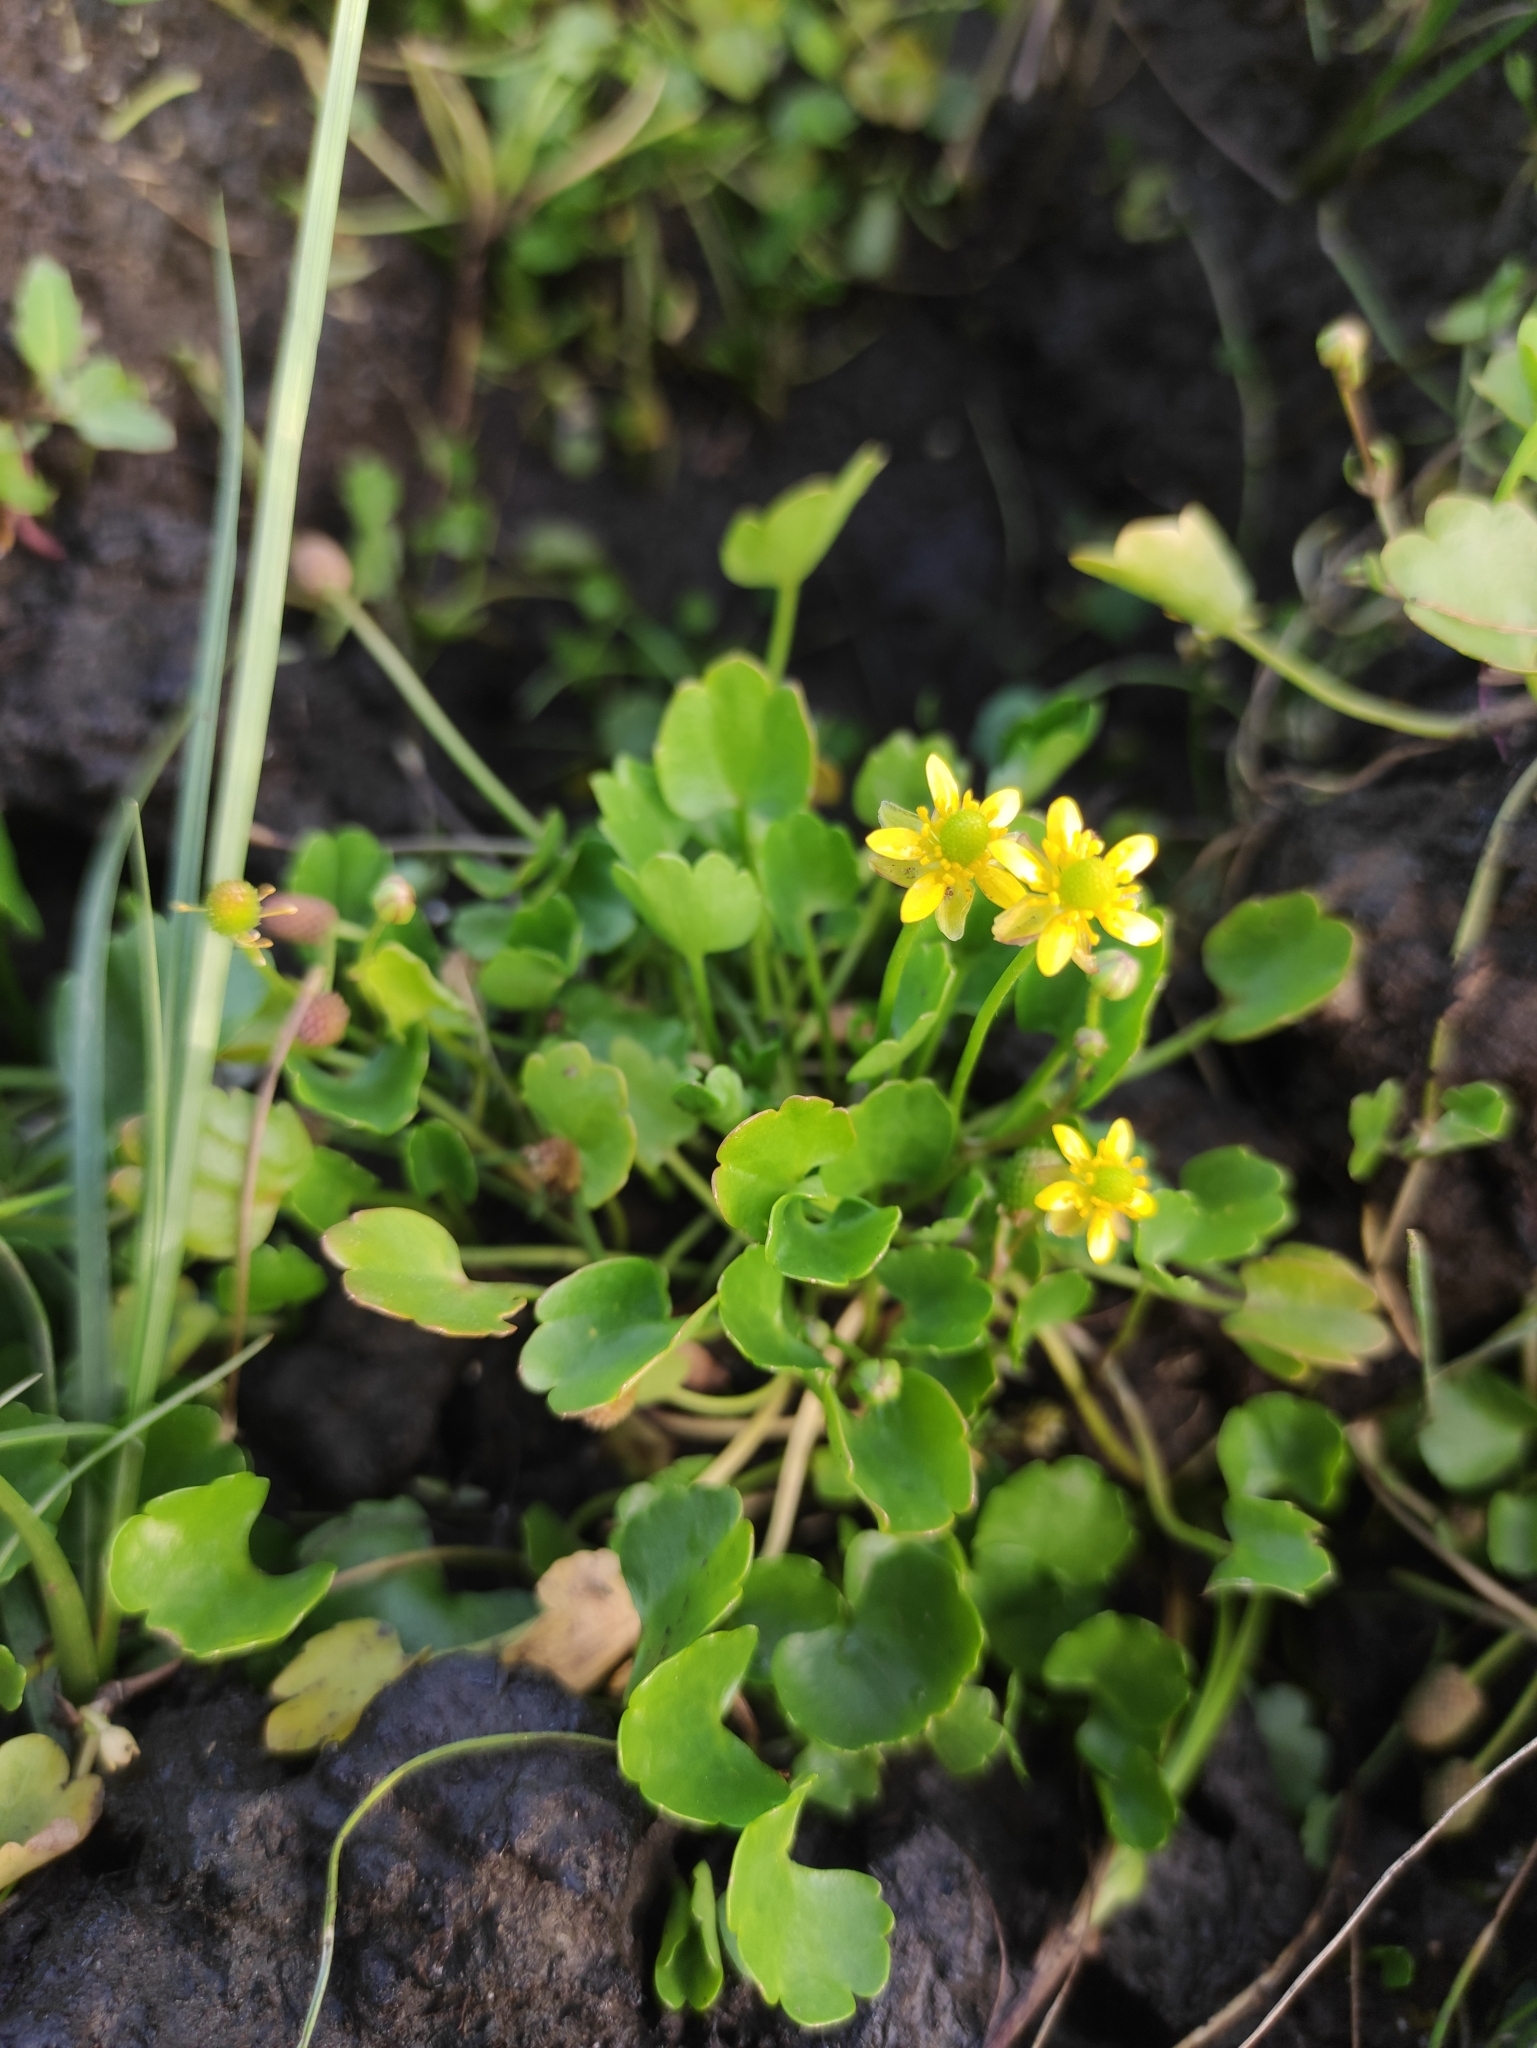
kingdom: Plantae
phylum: Tracheophyta
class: Magnoliopsida
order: Ranunculales
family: Ranunculaceae
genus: Halerpestes
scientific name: Halerpestes sarmentosus
